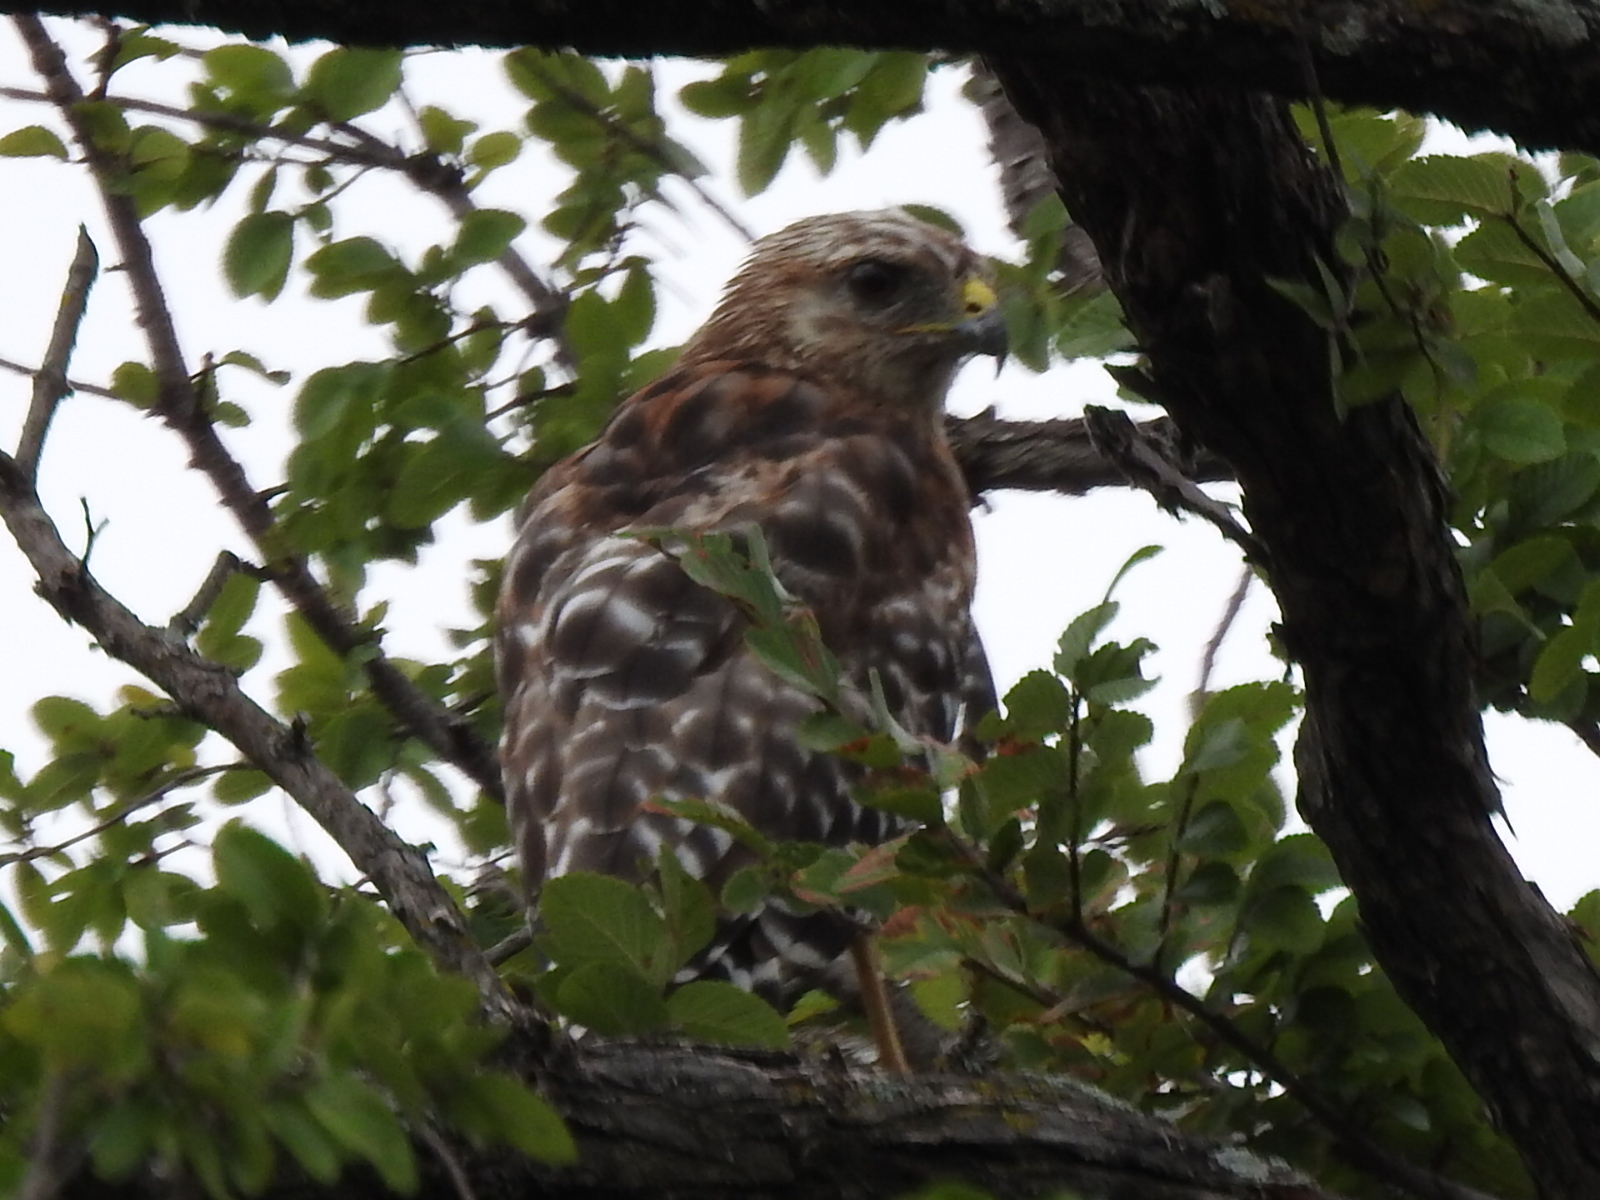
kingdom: Animalia
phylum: Chordata
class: Aves
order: Accipitriformes
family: Accipitridae
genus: Buteo
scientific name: Buteo lineatus
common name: Red-shouldered hawk
